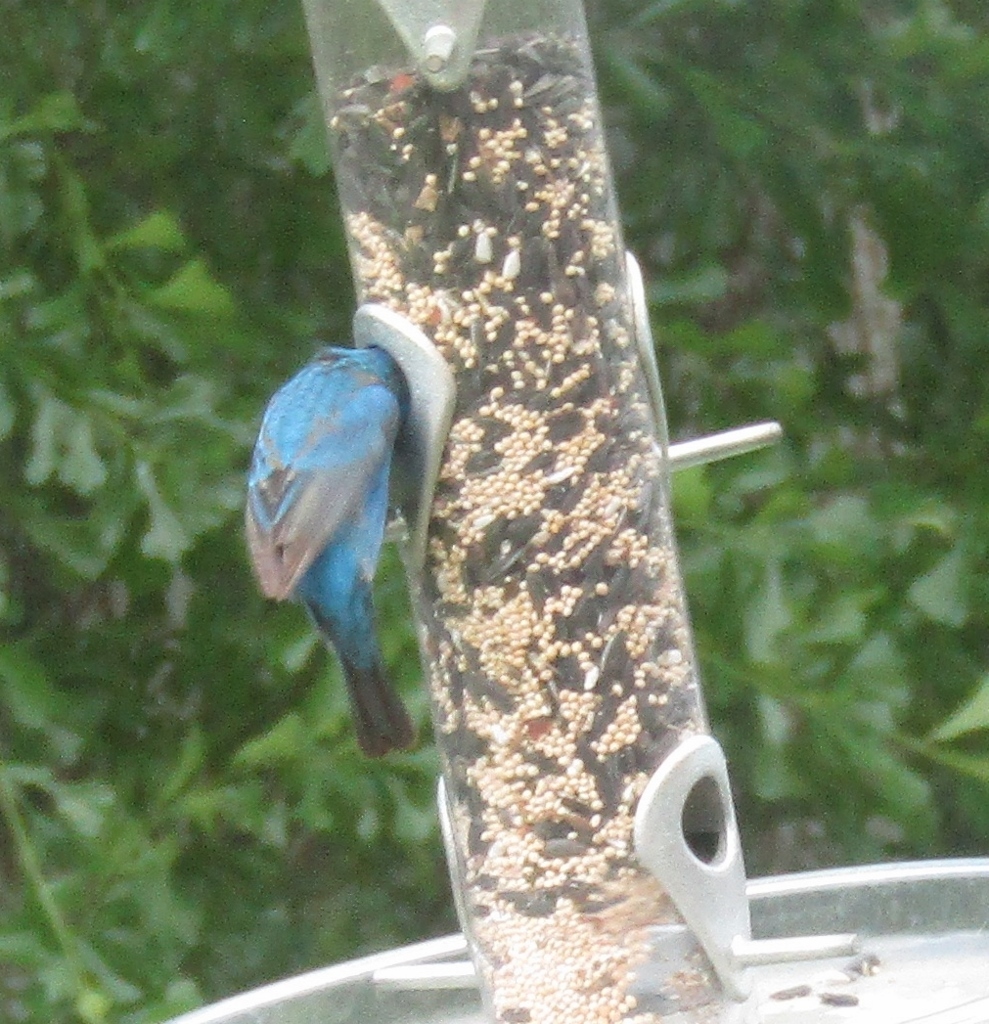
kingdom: Animalia
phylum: Chordata
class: Aves
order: Passeriformes
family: Cardinalidae
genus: Passerina
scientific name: Passerina cyanea
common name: Indigo bunting
